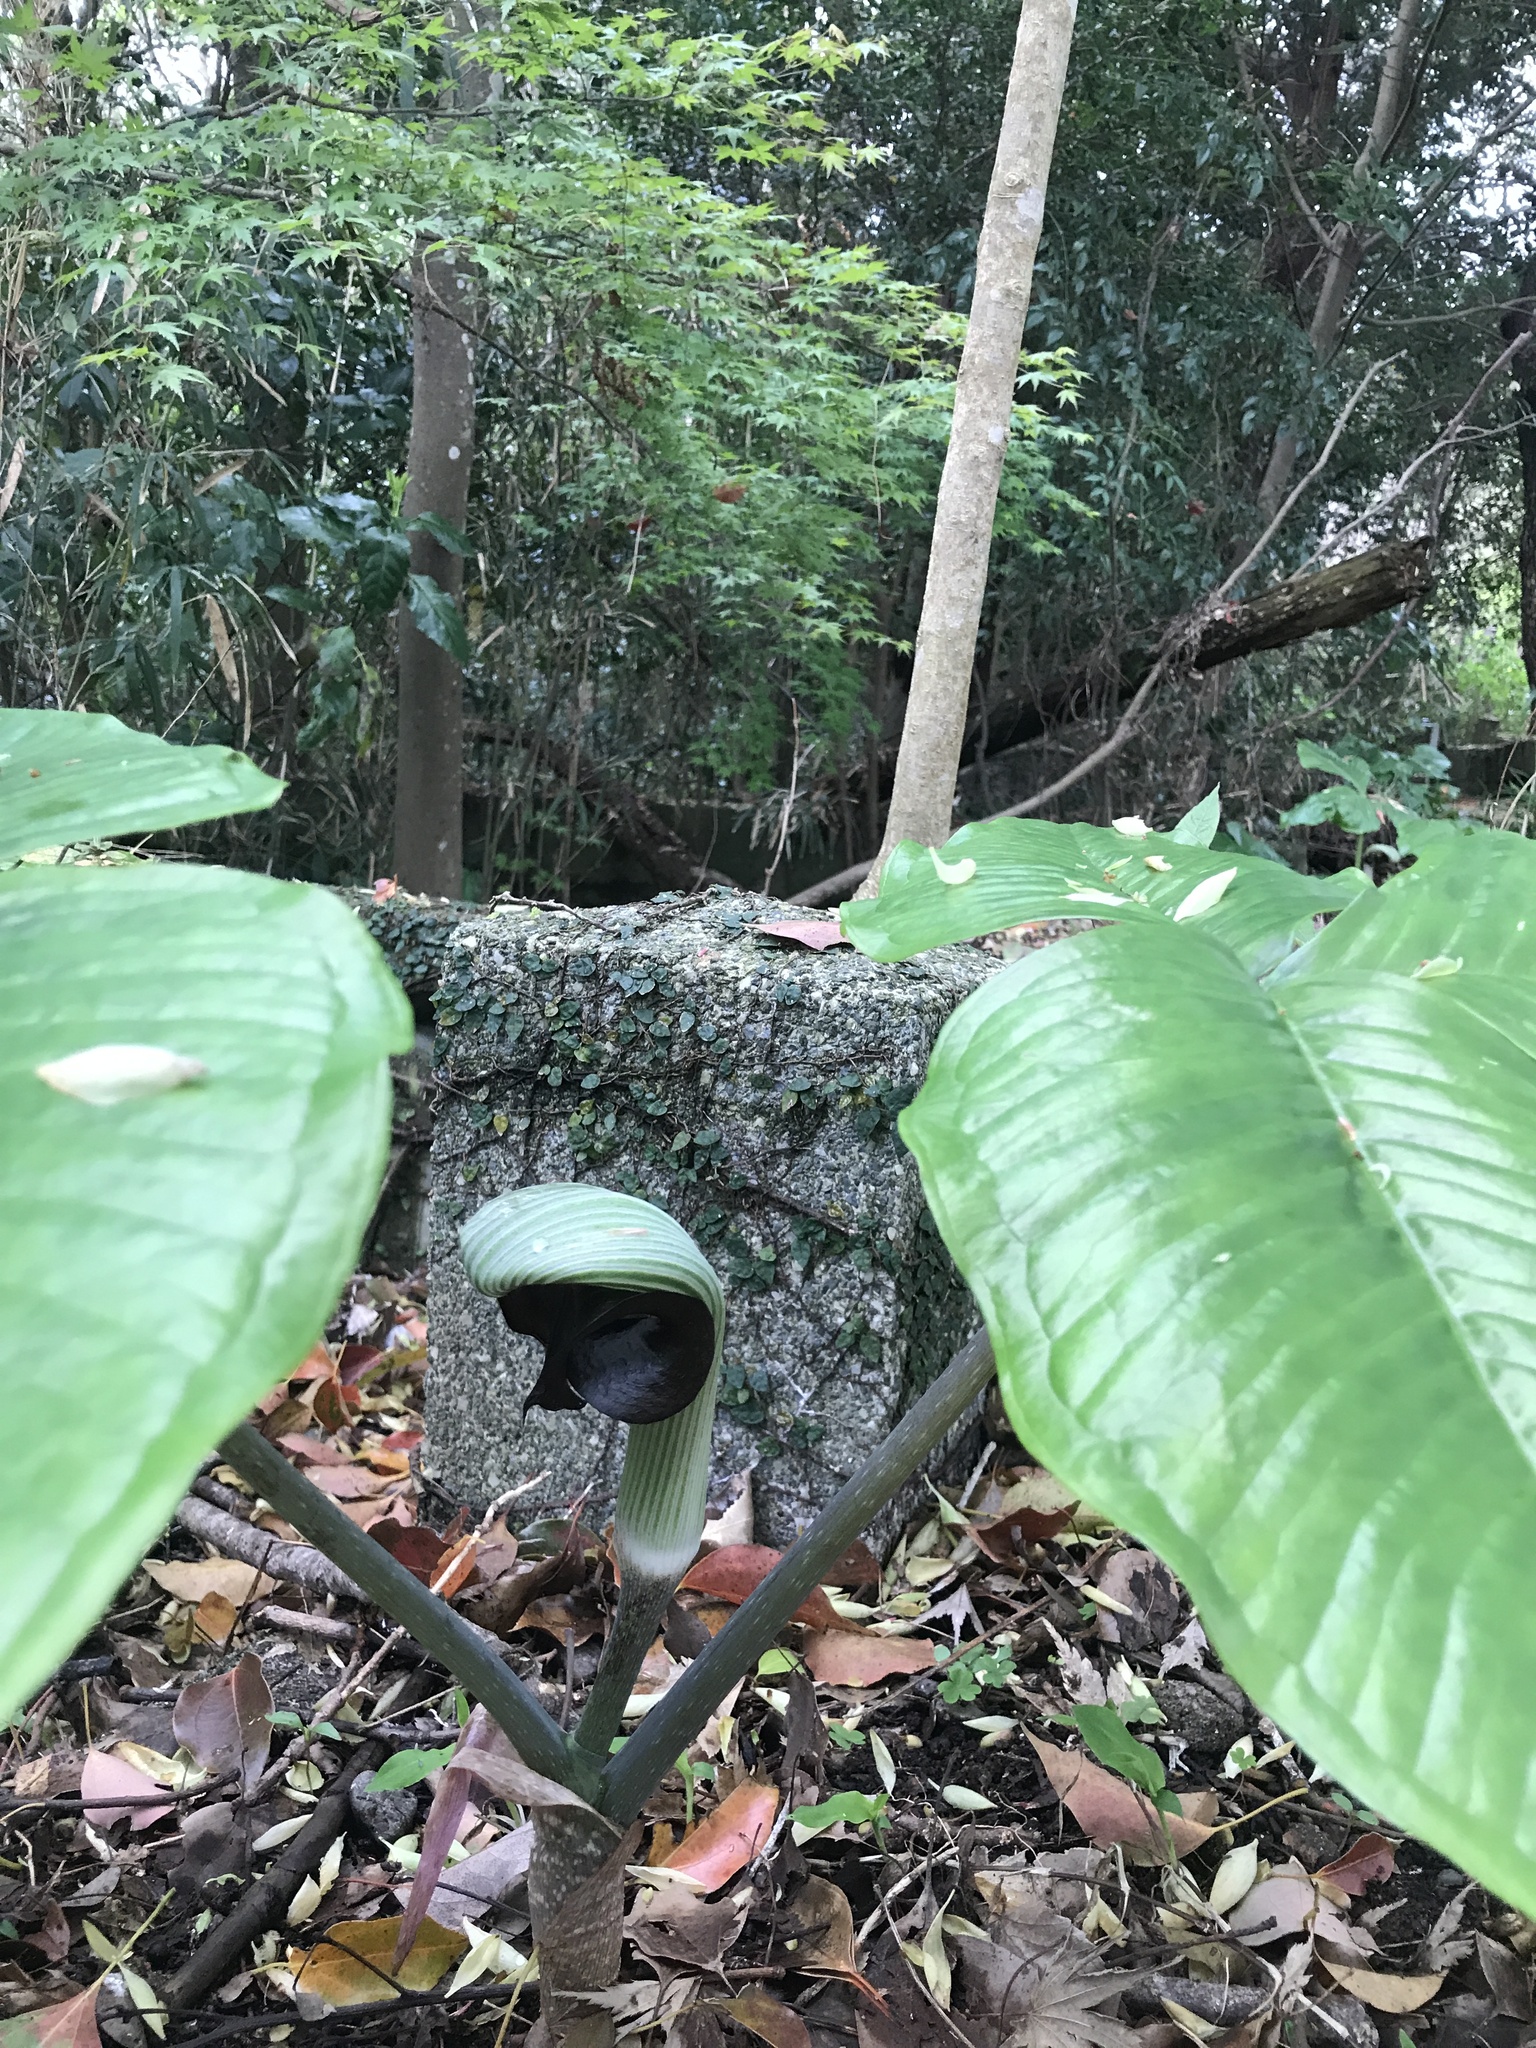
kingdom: Plantae
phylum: Tracheophyta
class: Liliopsida
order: Alismatales
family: Araceae
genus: Arisaema
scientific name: Arisaema ringens
